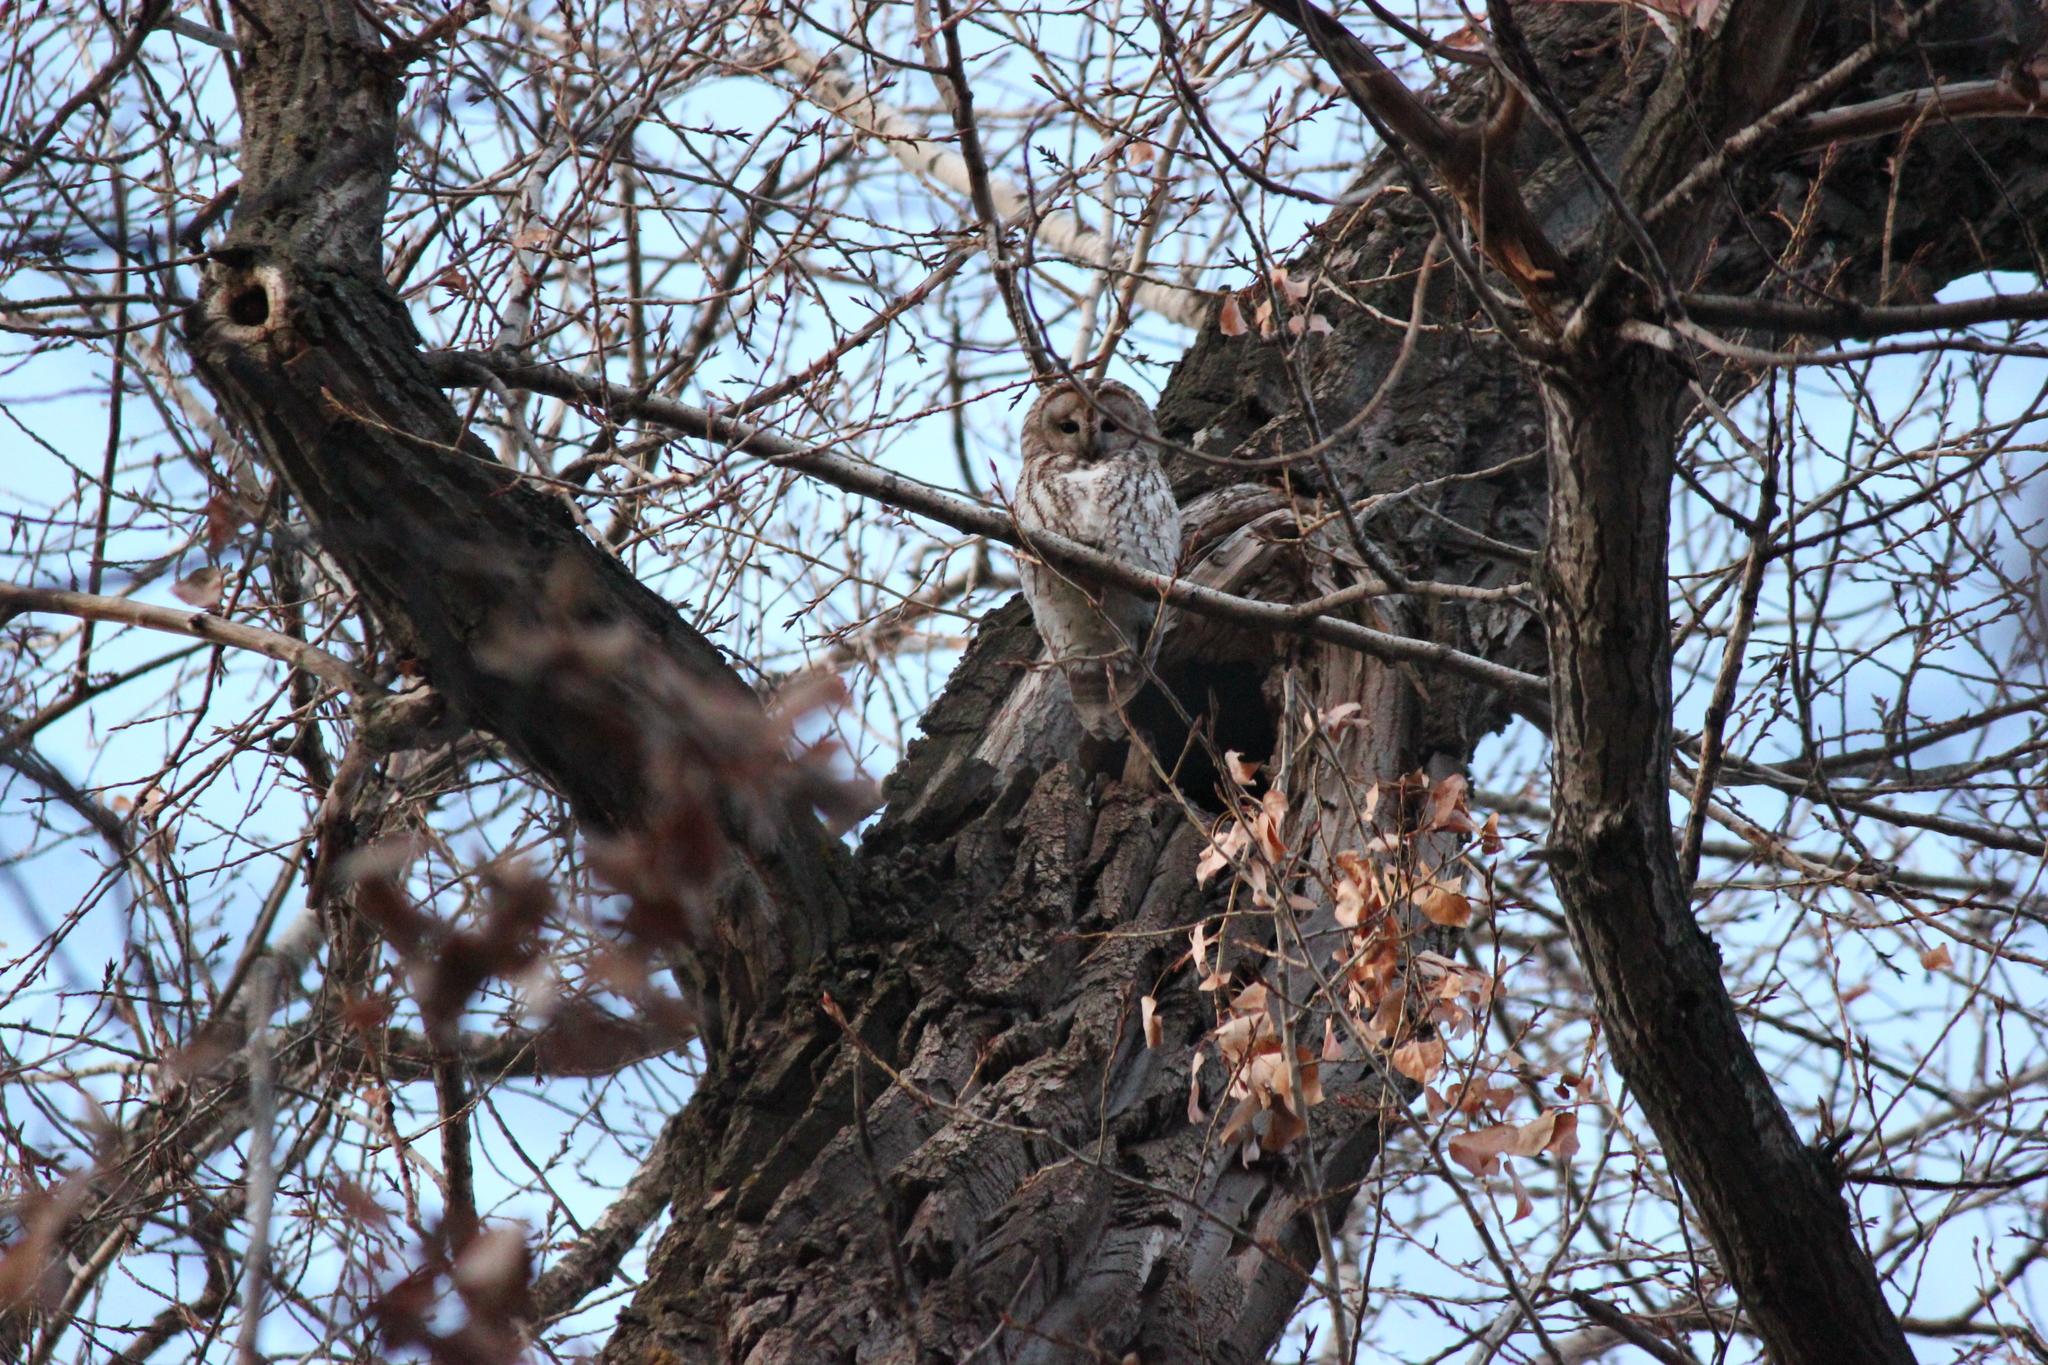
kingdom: Animalia
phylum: Chordata
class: Aves
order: Strigiformes
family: Strigidae
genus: Strix
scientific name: Strix aluco
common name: Tawny owl
